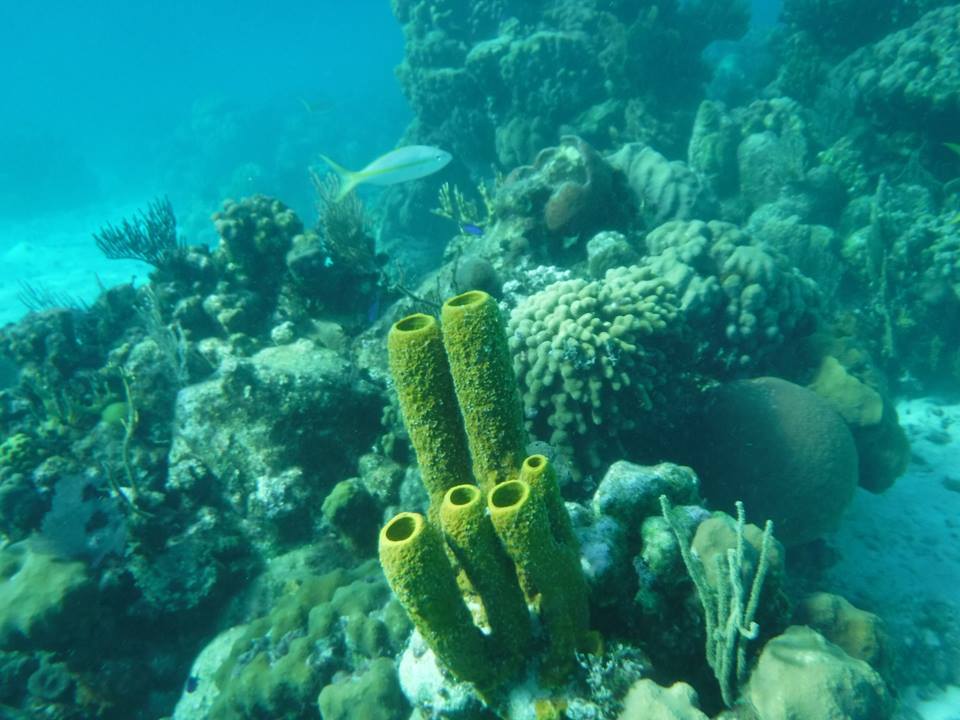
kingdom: Animalia
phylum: Porifera
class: Demospongiae
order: Verongiida
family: Aplysinidae
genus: Aplysina
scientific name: Aplysina fistularis
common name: Candle sponge
